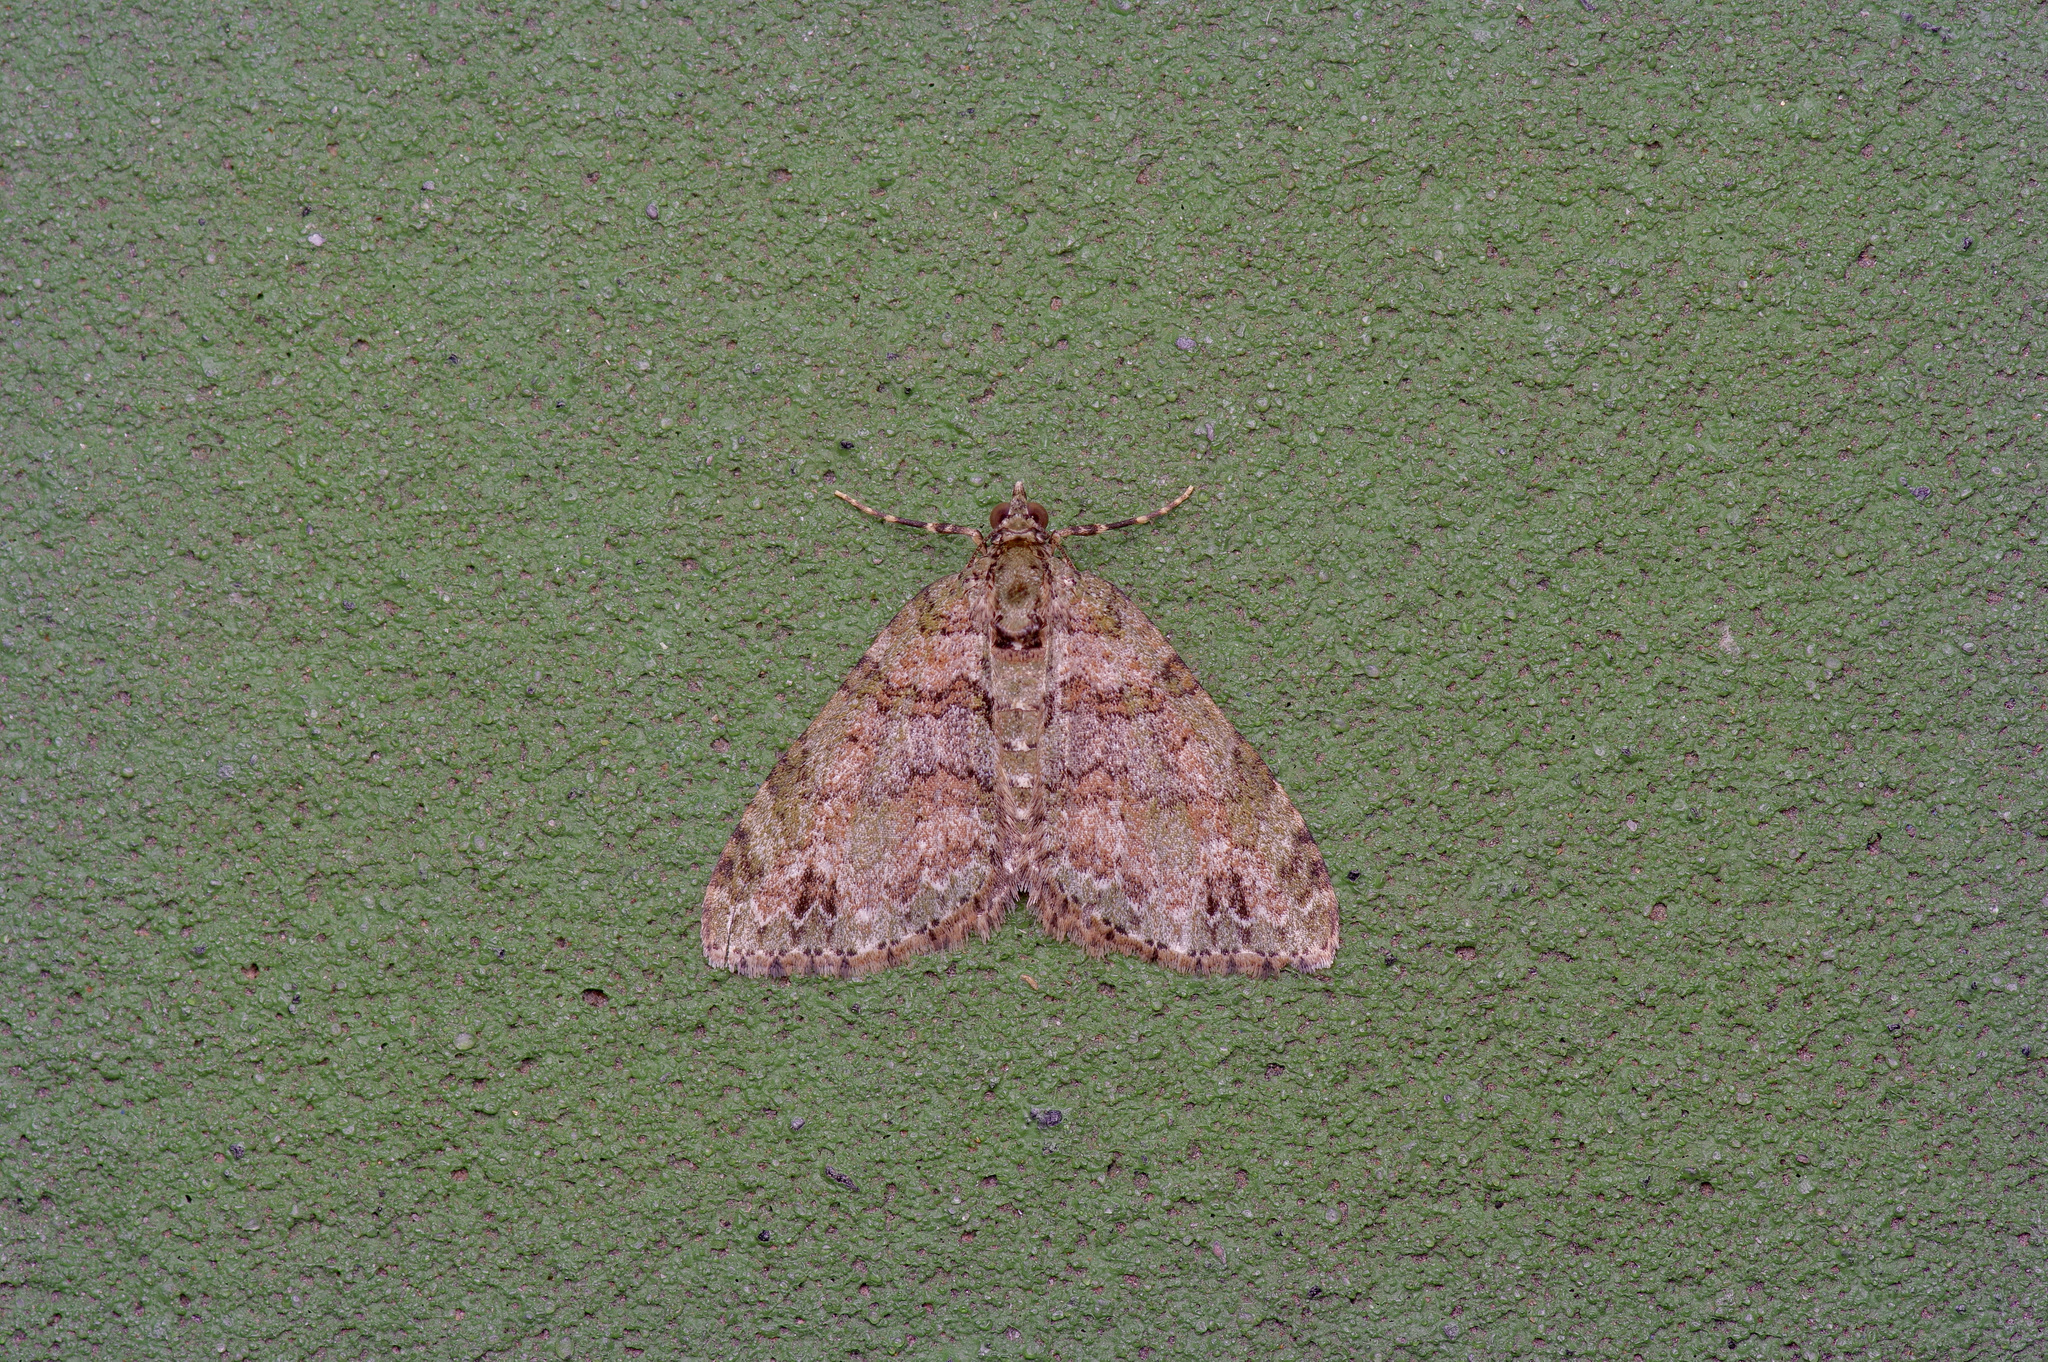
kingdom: Animalia
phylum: Arthropoda
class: Insecta
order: Lepidoptera
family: Geometridae
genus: Hammaptera
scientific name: Hammaptera parinotata
